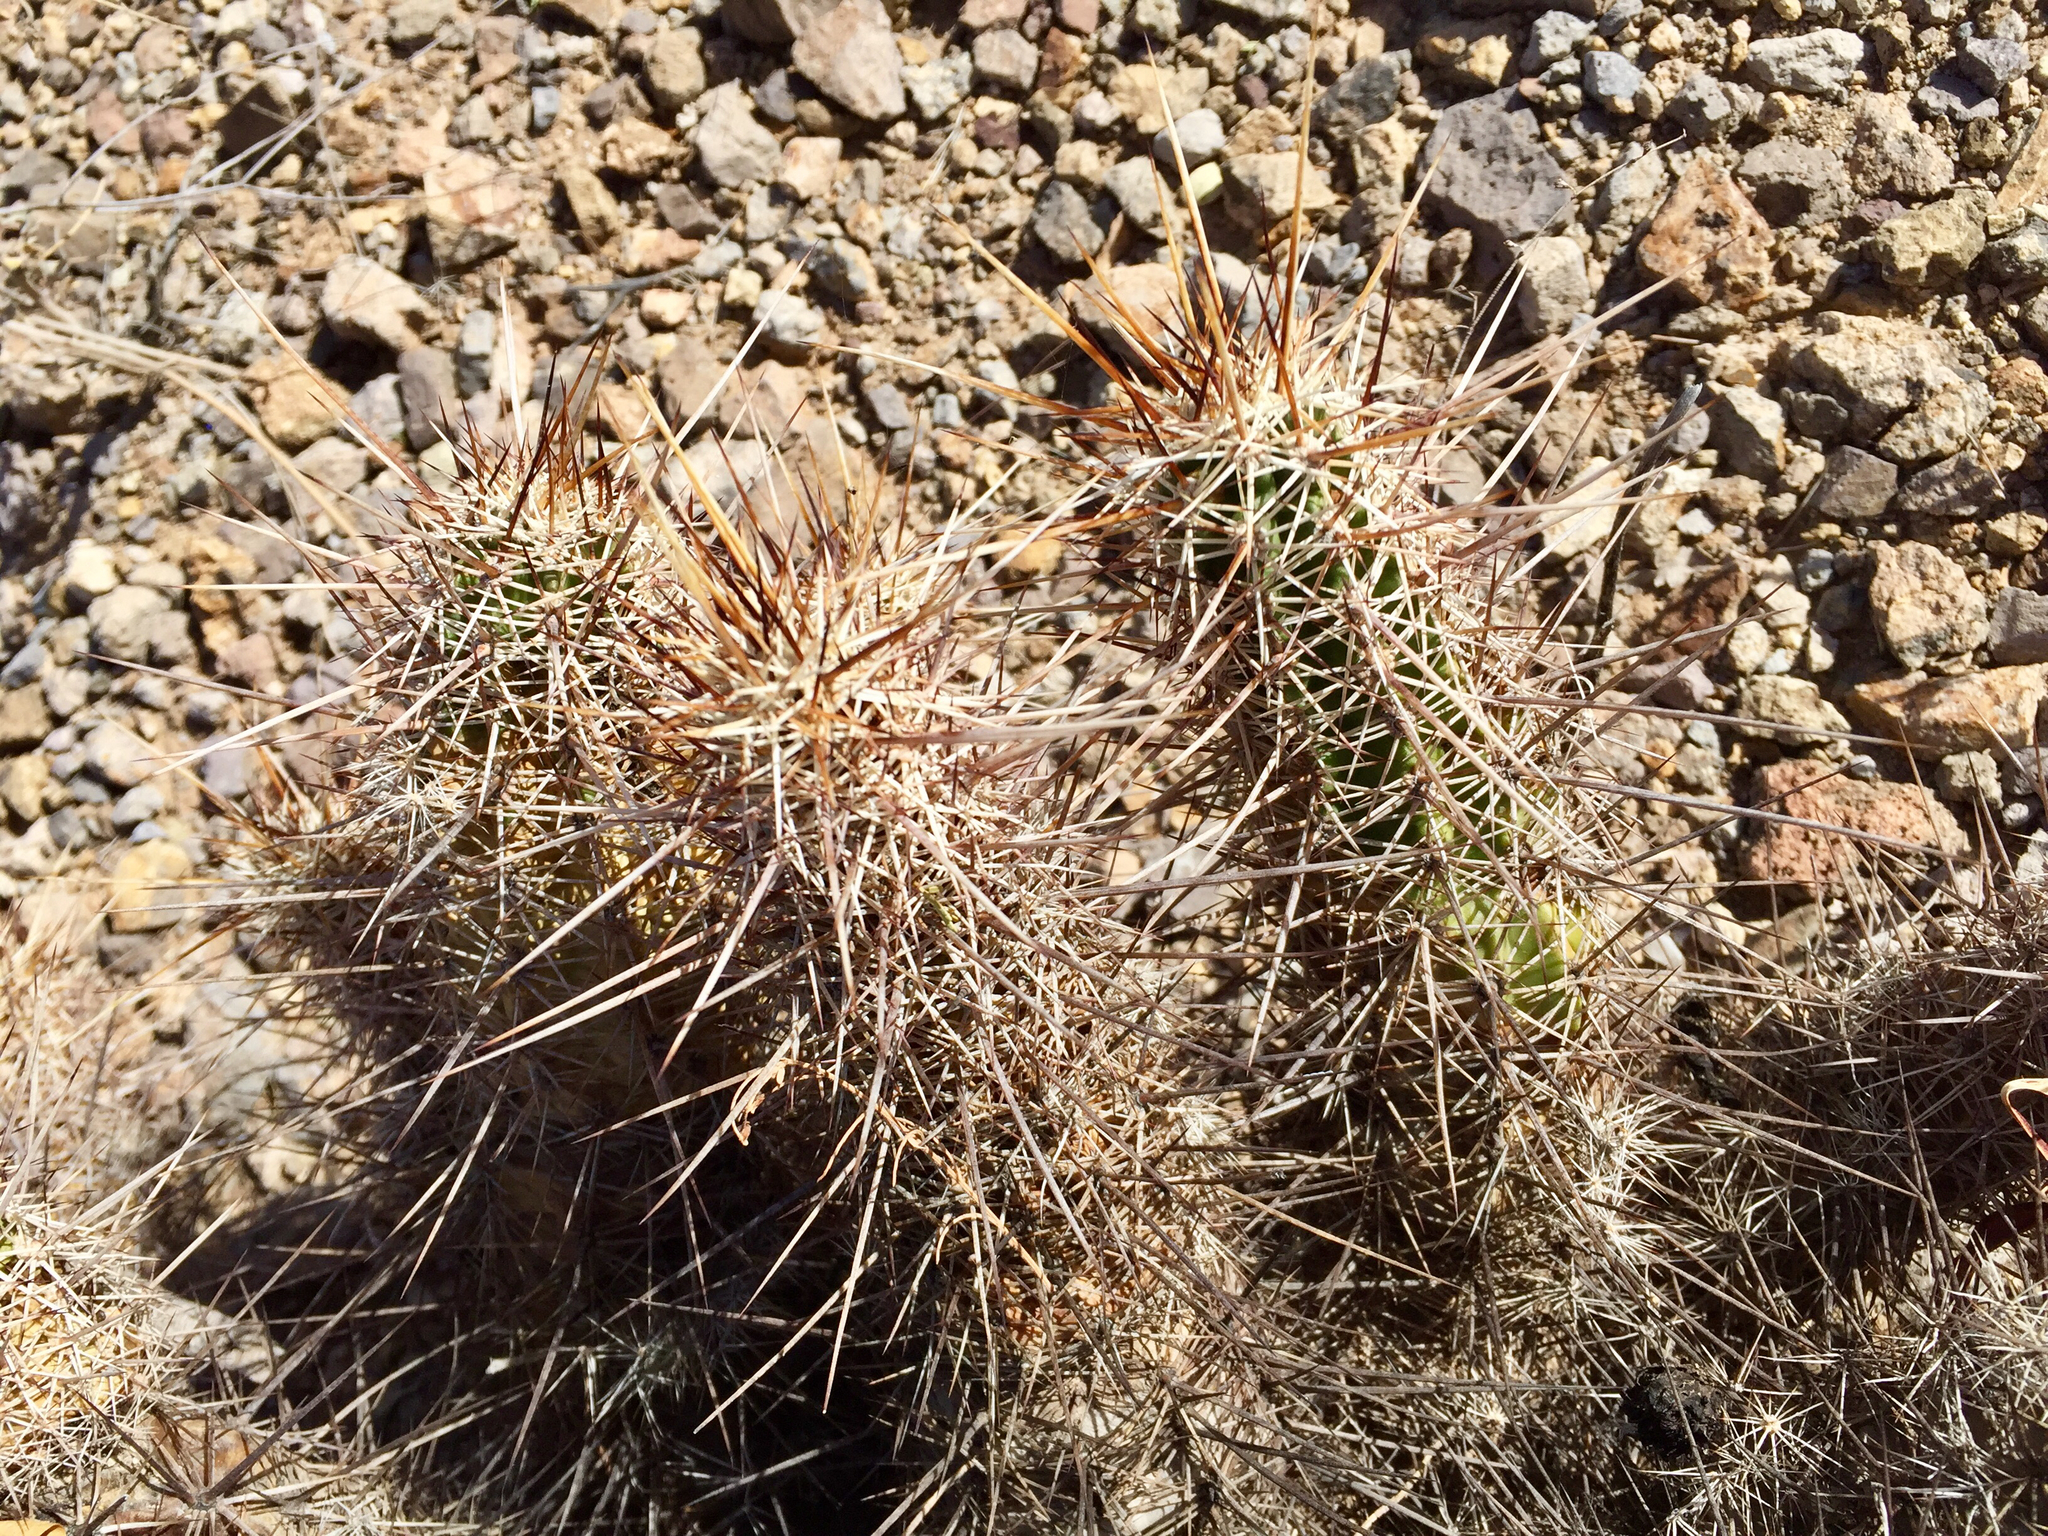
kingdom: Plantae
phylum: Tracheophyta
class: Magnoliopsida
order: Caryophyllales
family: Cactaceae
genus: Echinocereus
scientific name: Echinocereus fasciculatus
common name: Bundle hedgehog
